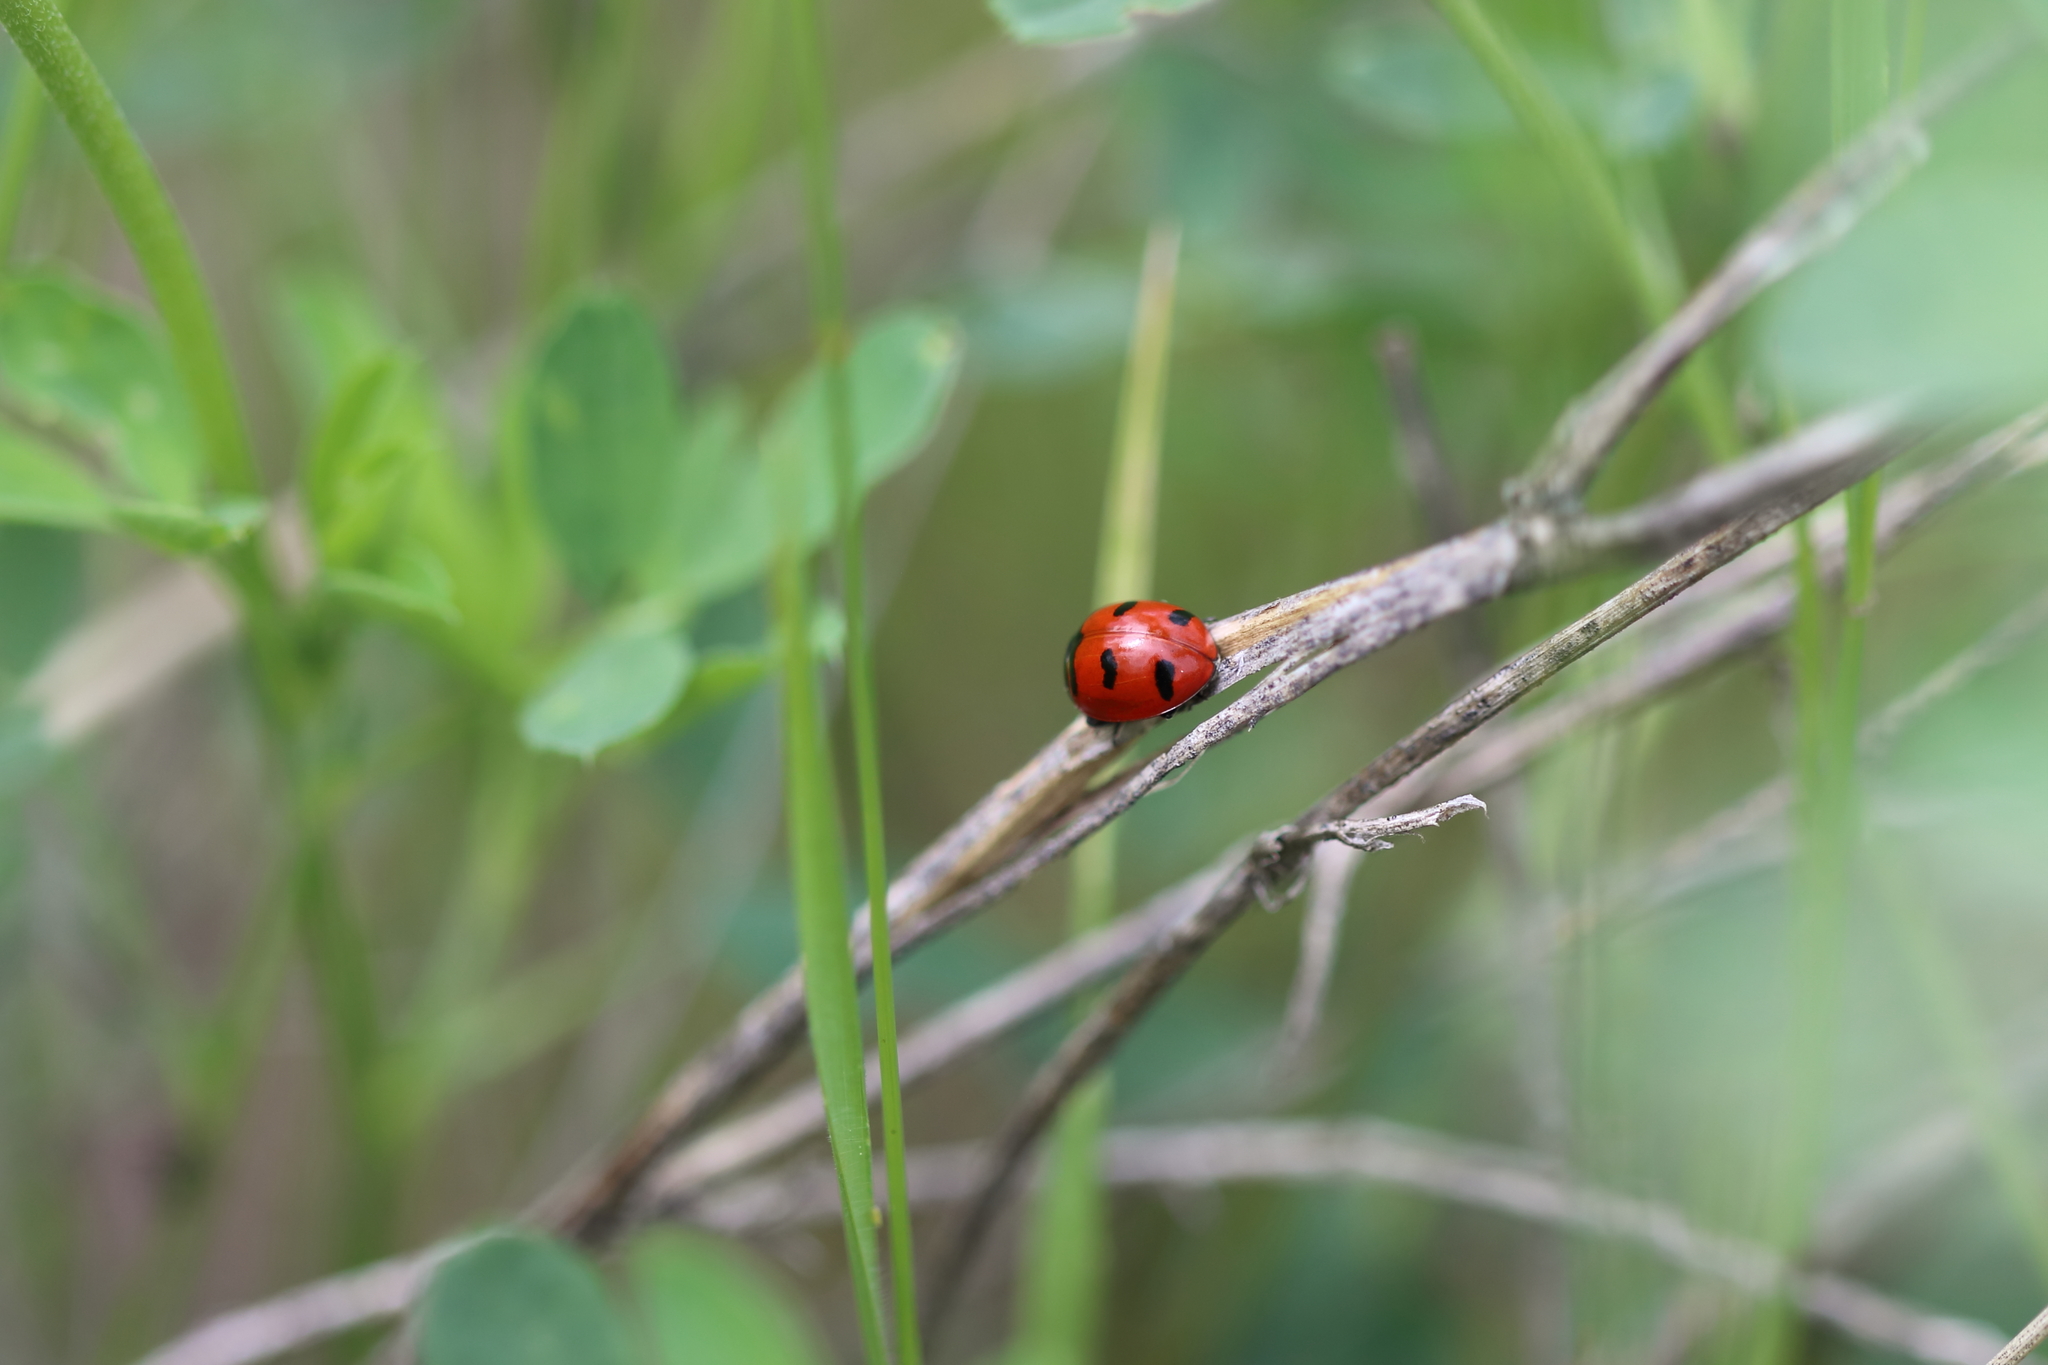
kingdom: Animalia
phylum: Arthropoda
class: Insecta
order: Coleoptera
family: Coccinellidae
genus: Coccinella
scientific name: Coccinella transversoguttata
